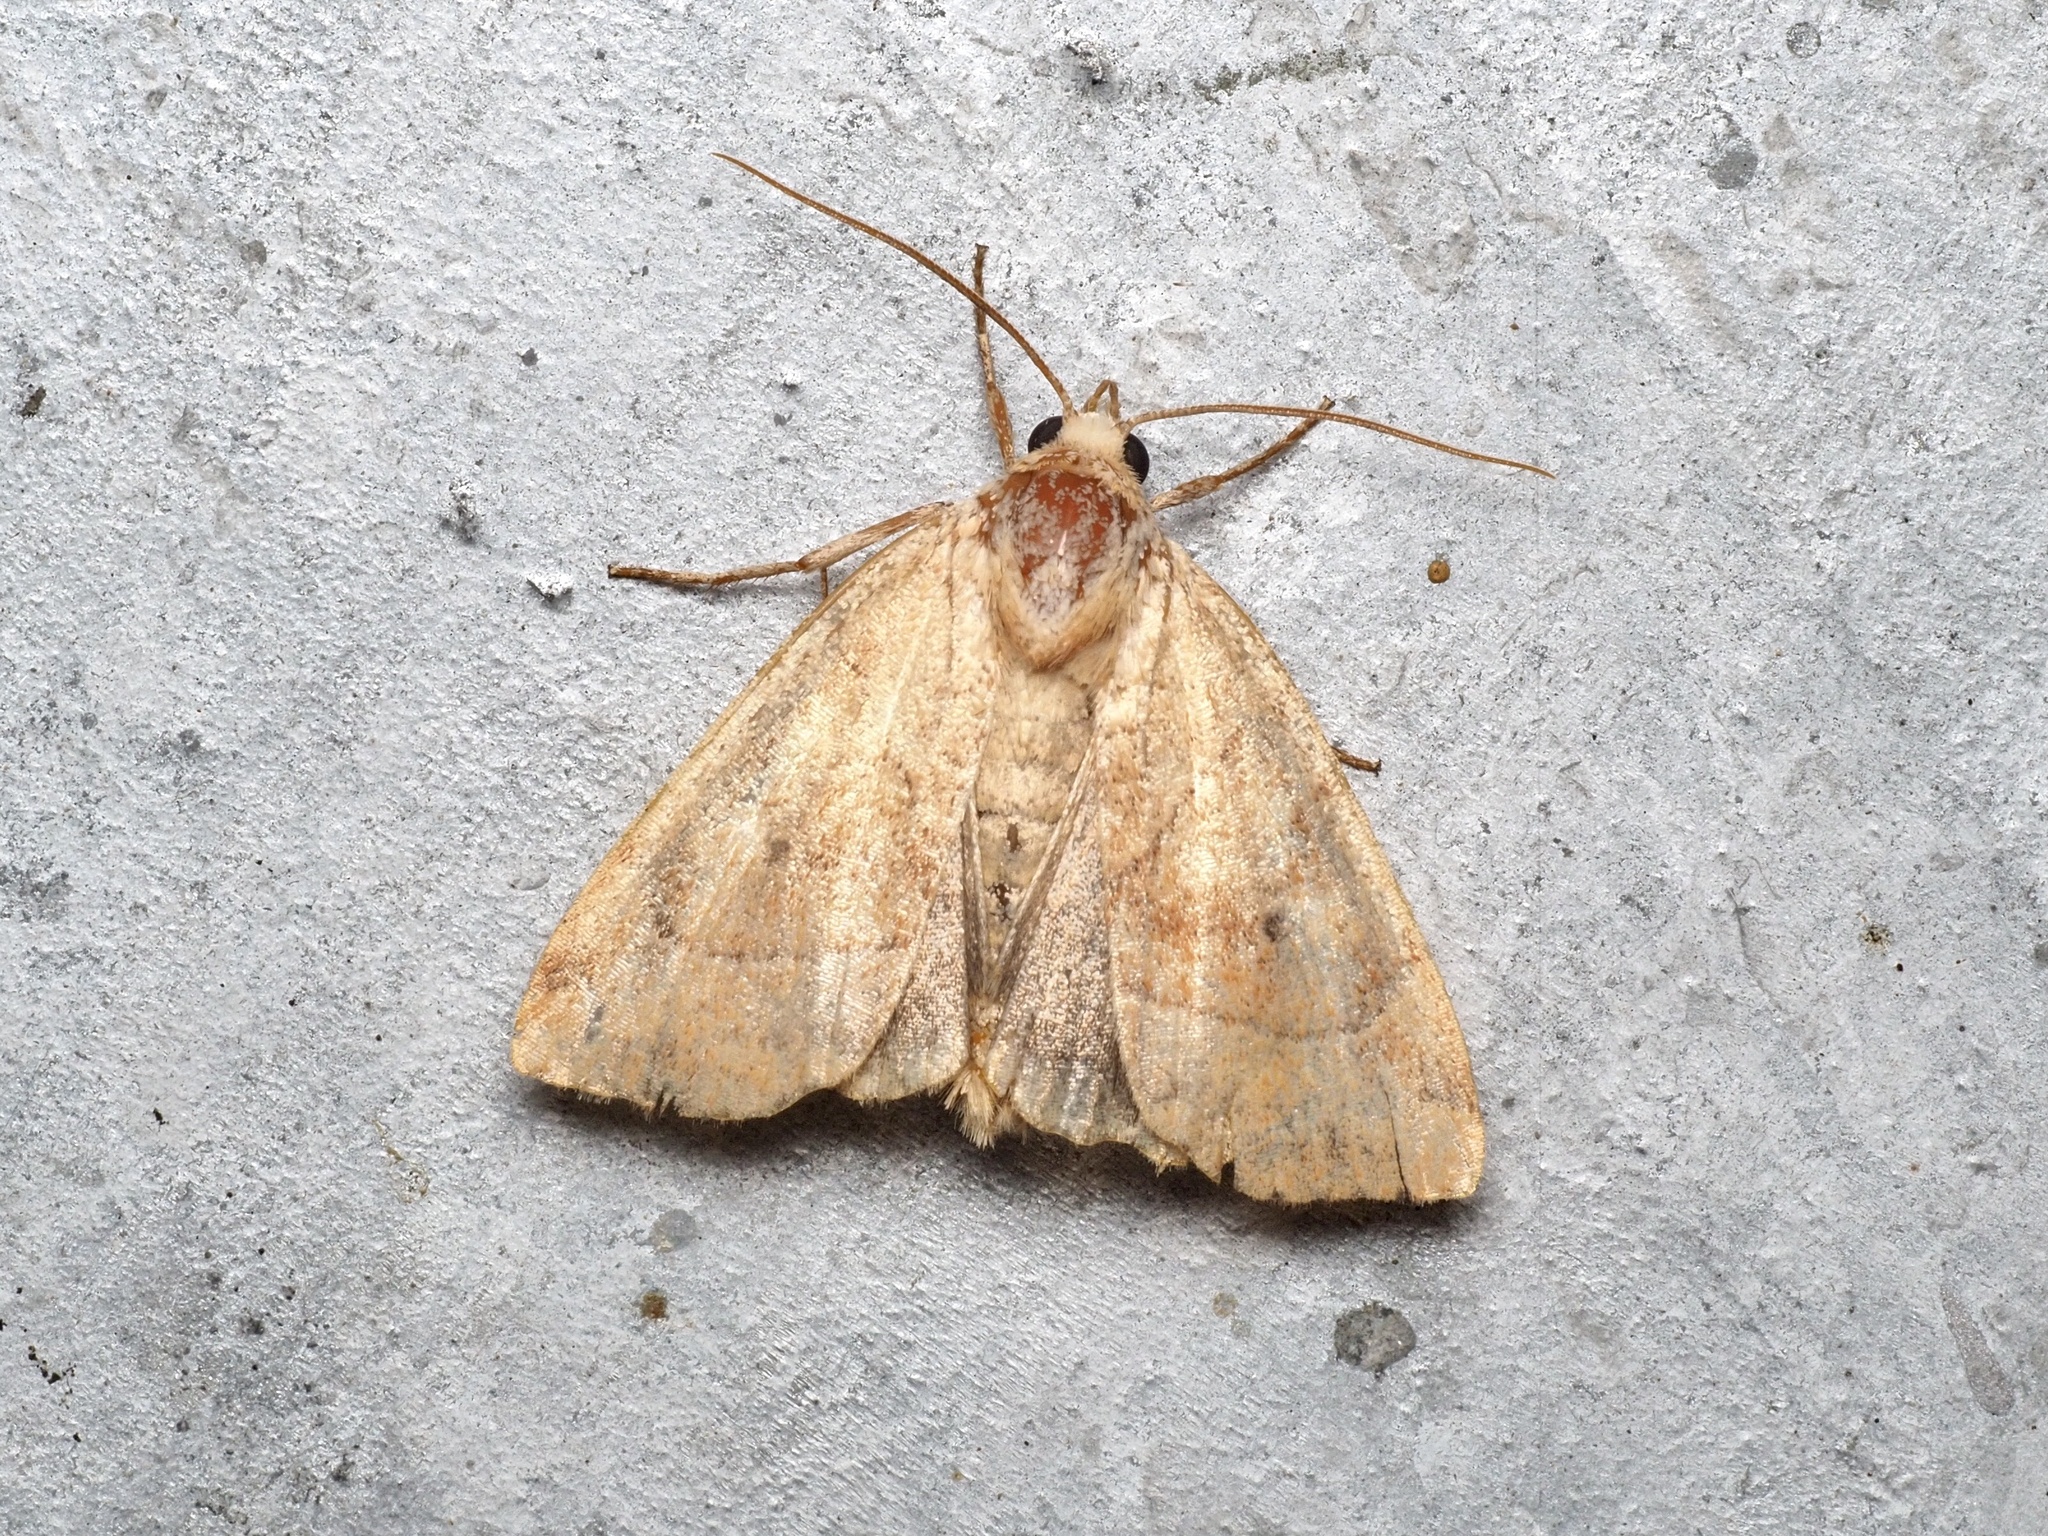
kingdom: Animalia
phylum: Arthropoda
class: Insecta
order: Lepidoptera
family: Noctuidae
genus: Cosmia
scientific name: Cosmia trapezina
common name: Dun-bar
